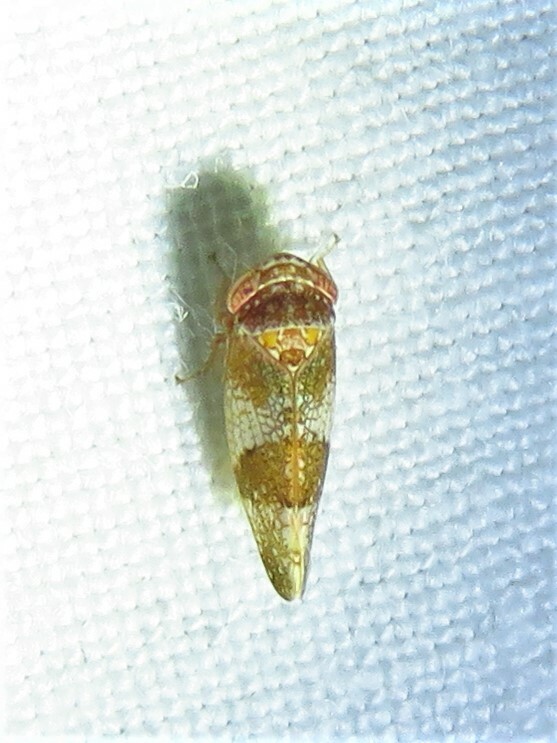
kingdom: Animalia
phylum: Arthropoda
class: Insecta
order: Hemiptera
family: Cicadellidae
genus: Norvellina
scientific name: Norvellina helenae
